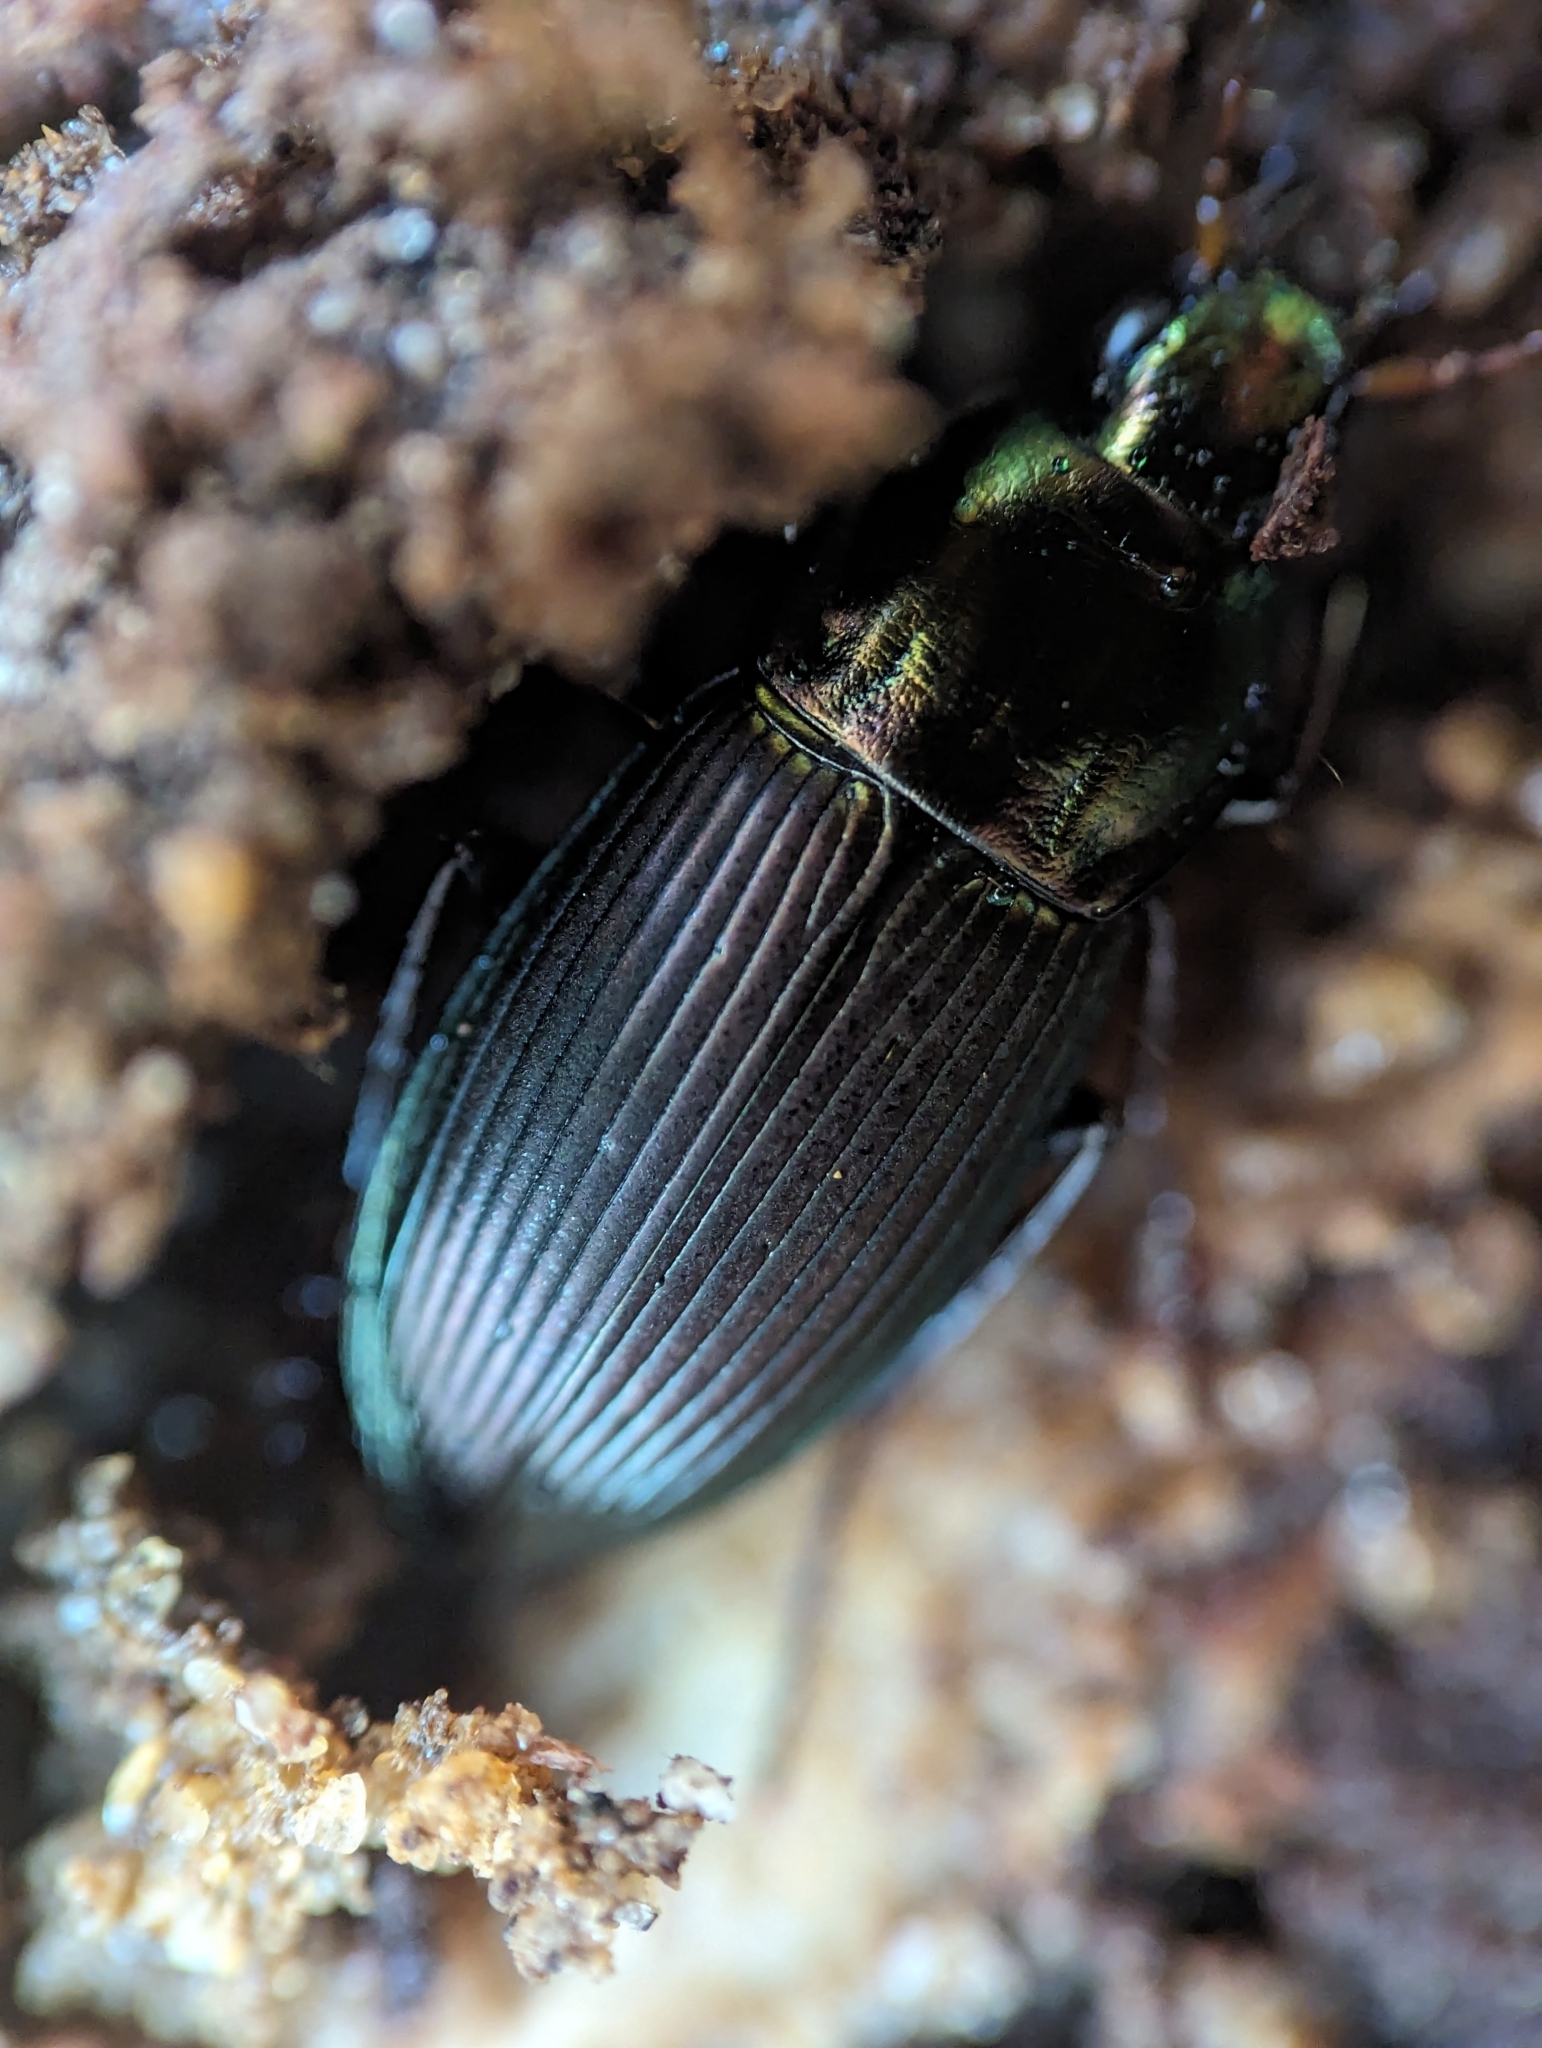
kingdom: Animalia
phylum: Arthropoda
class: Insecta
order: Coleoptera
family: Carabidae
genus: Poecilus
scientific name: Poecilus lucublandus
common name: Woodland ground beetle
